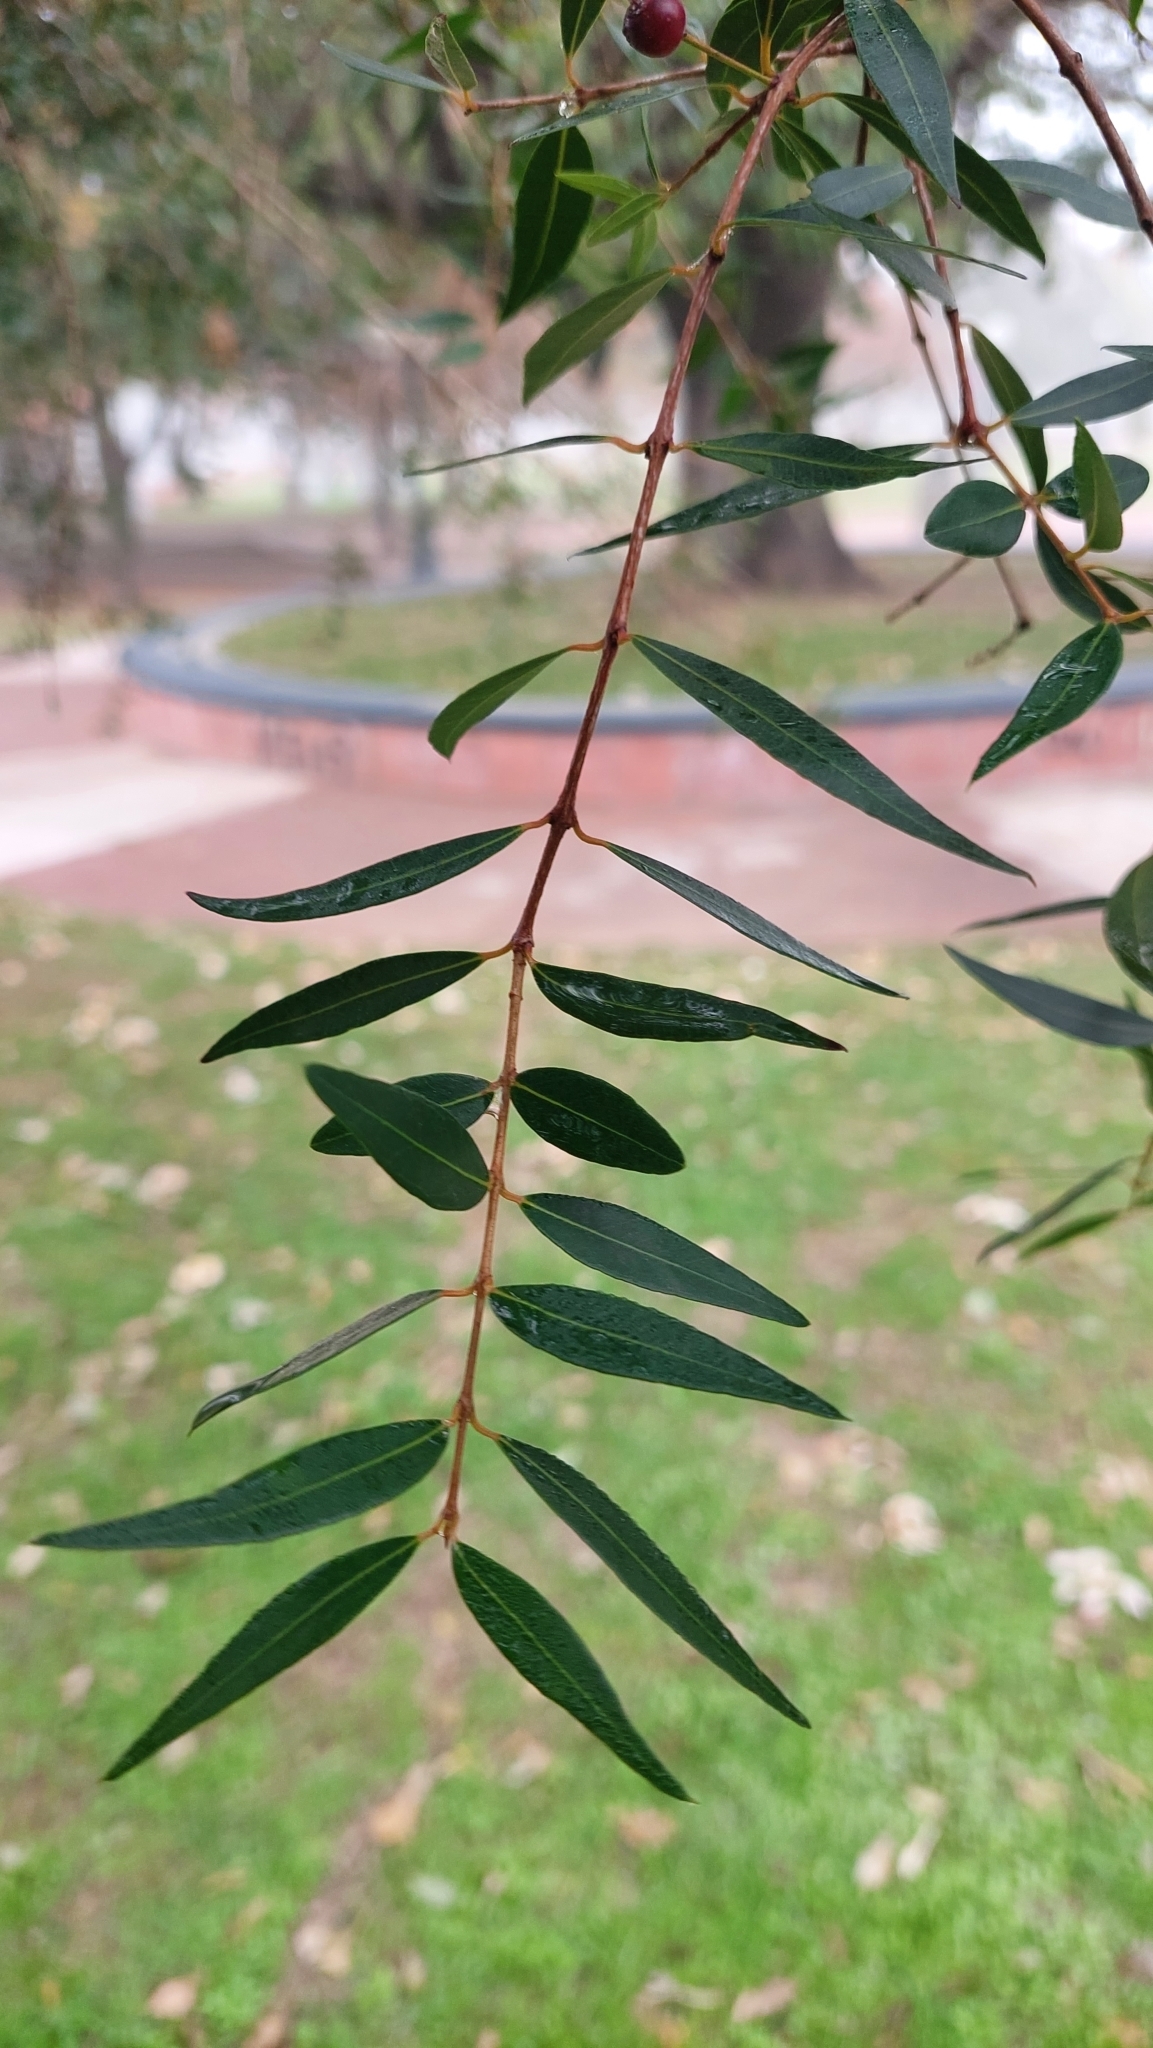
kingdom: Plantae
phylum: Tracheophyta
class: Magnoliopsida
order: Myrtales
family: Myrtaceae
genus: Blepharocalyx
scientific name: Blepharocalyx salicifolius
